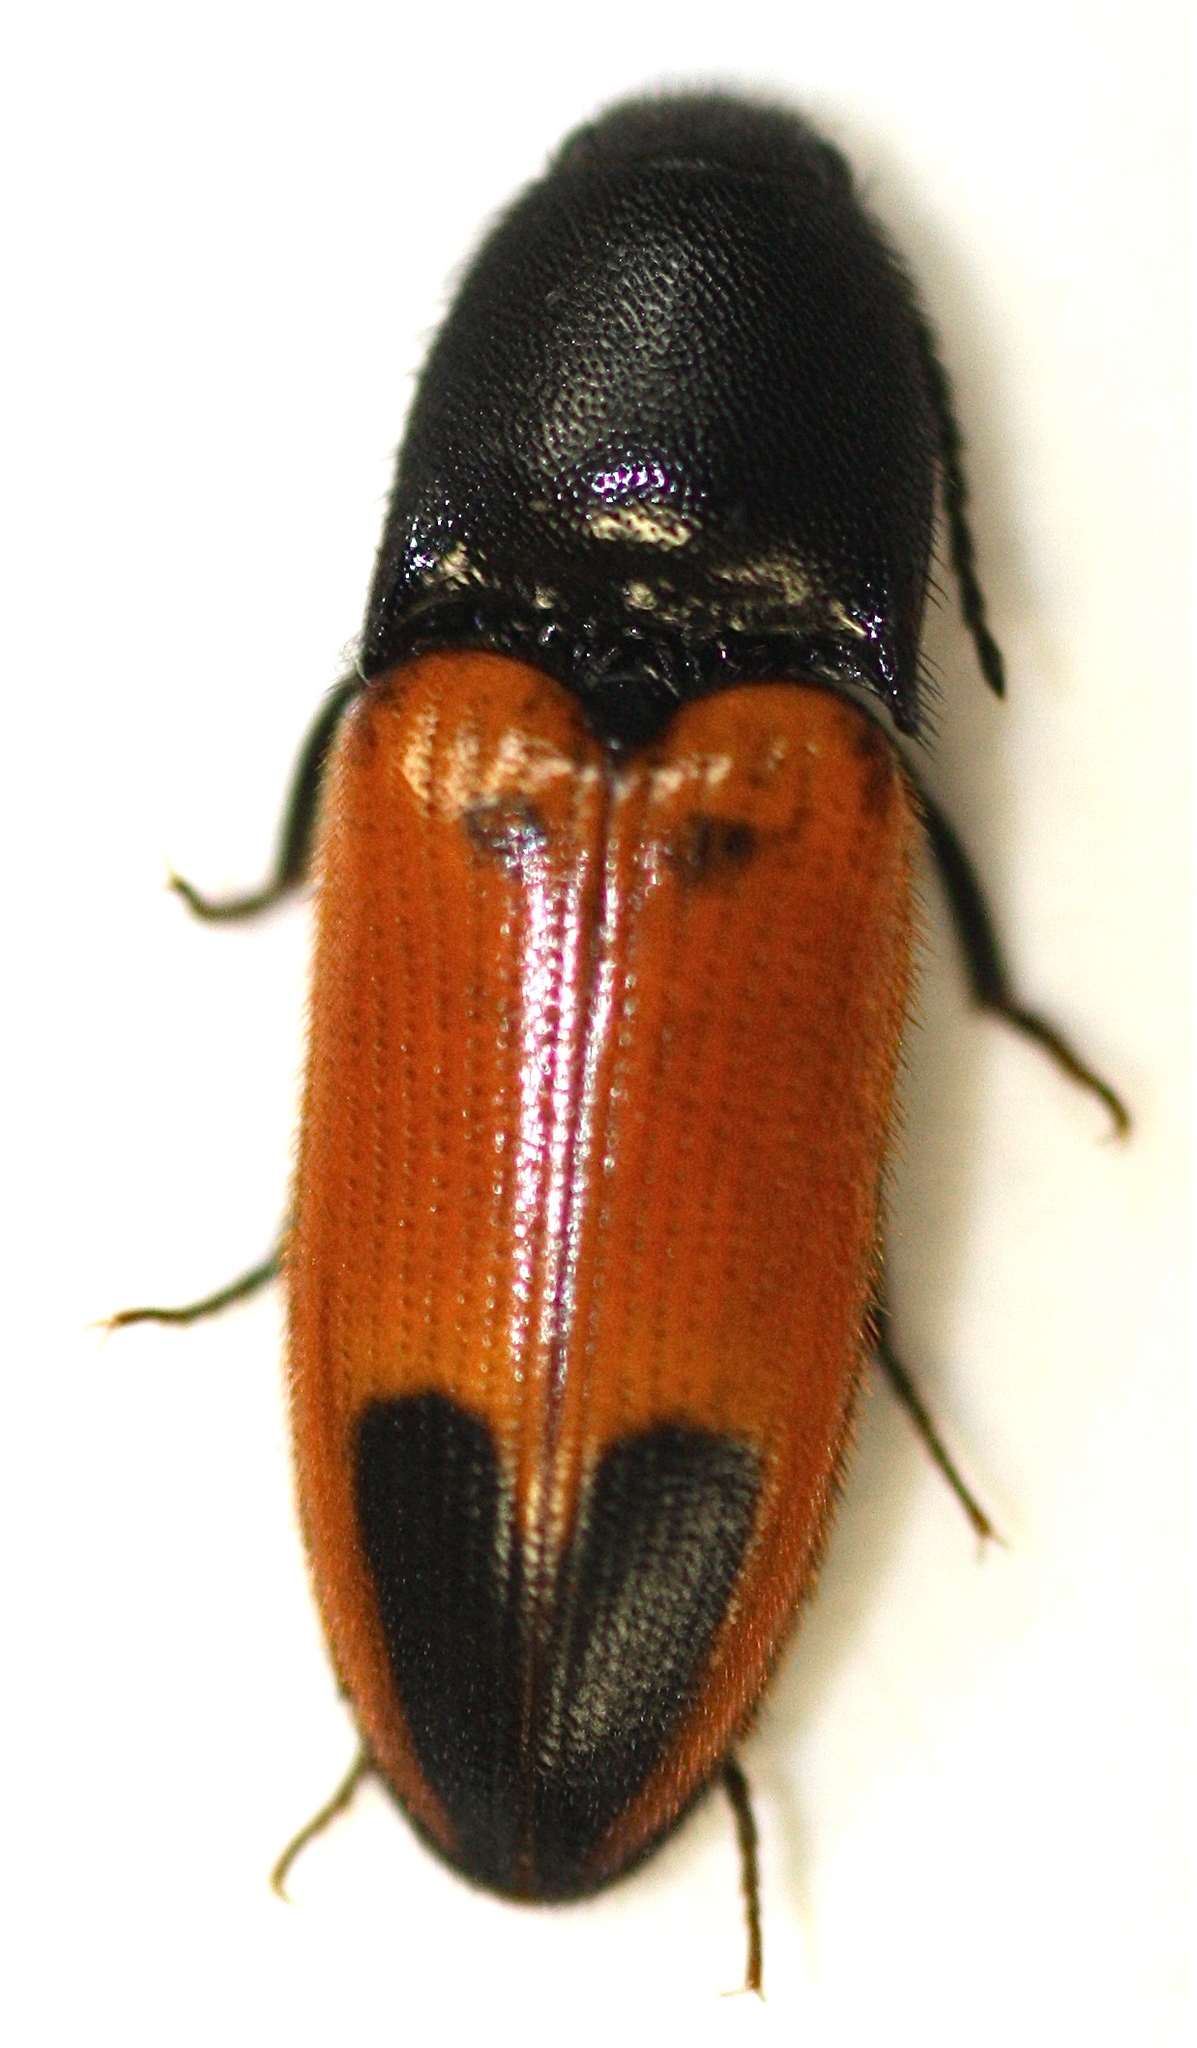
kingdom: Animalia
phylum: Arthropoda
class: Insecta
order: Coleoptera
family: Elateridae
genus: Ampedus
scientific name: Ampedus
